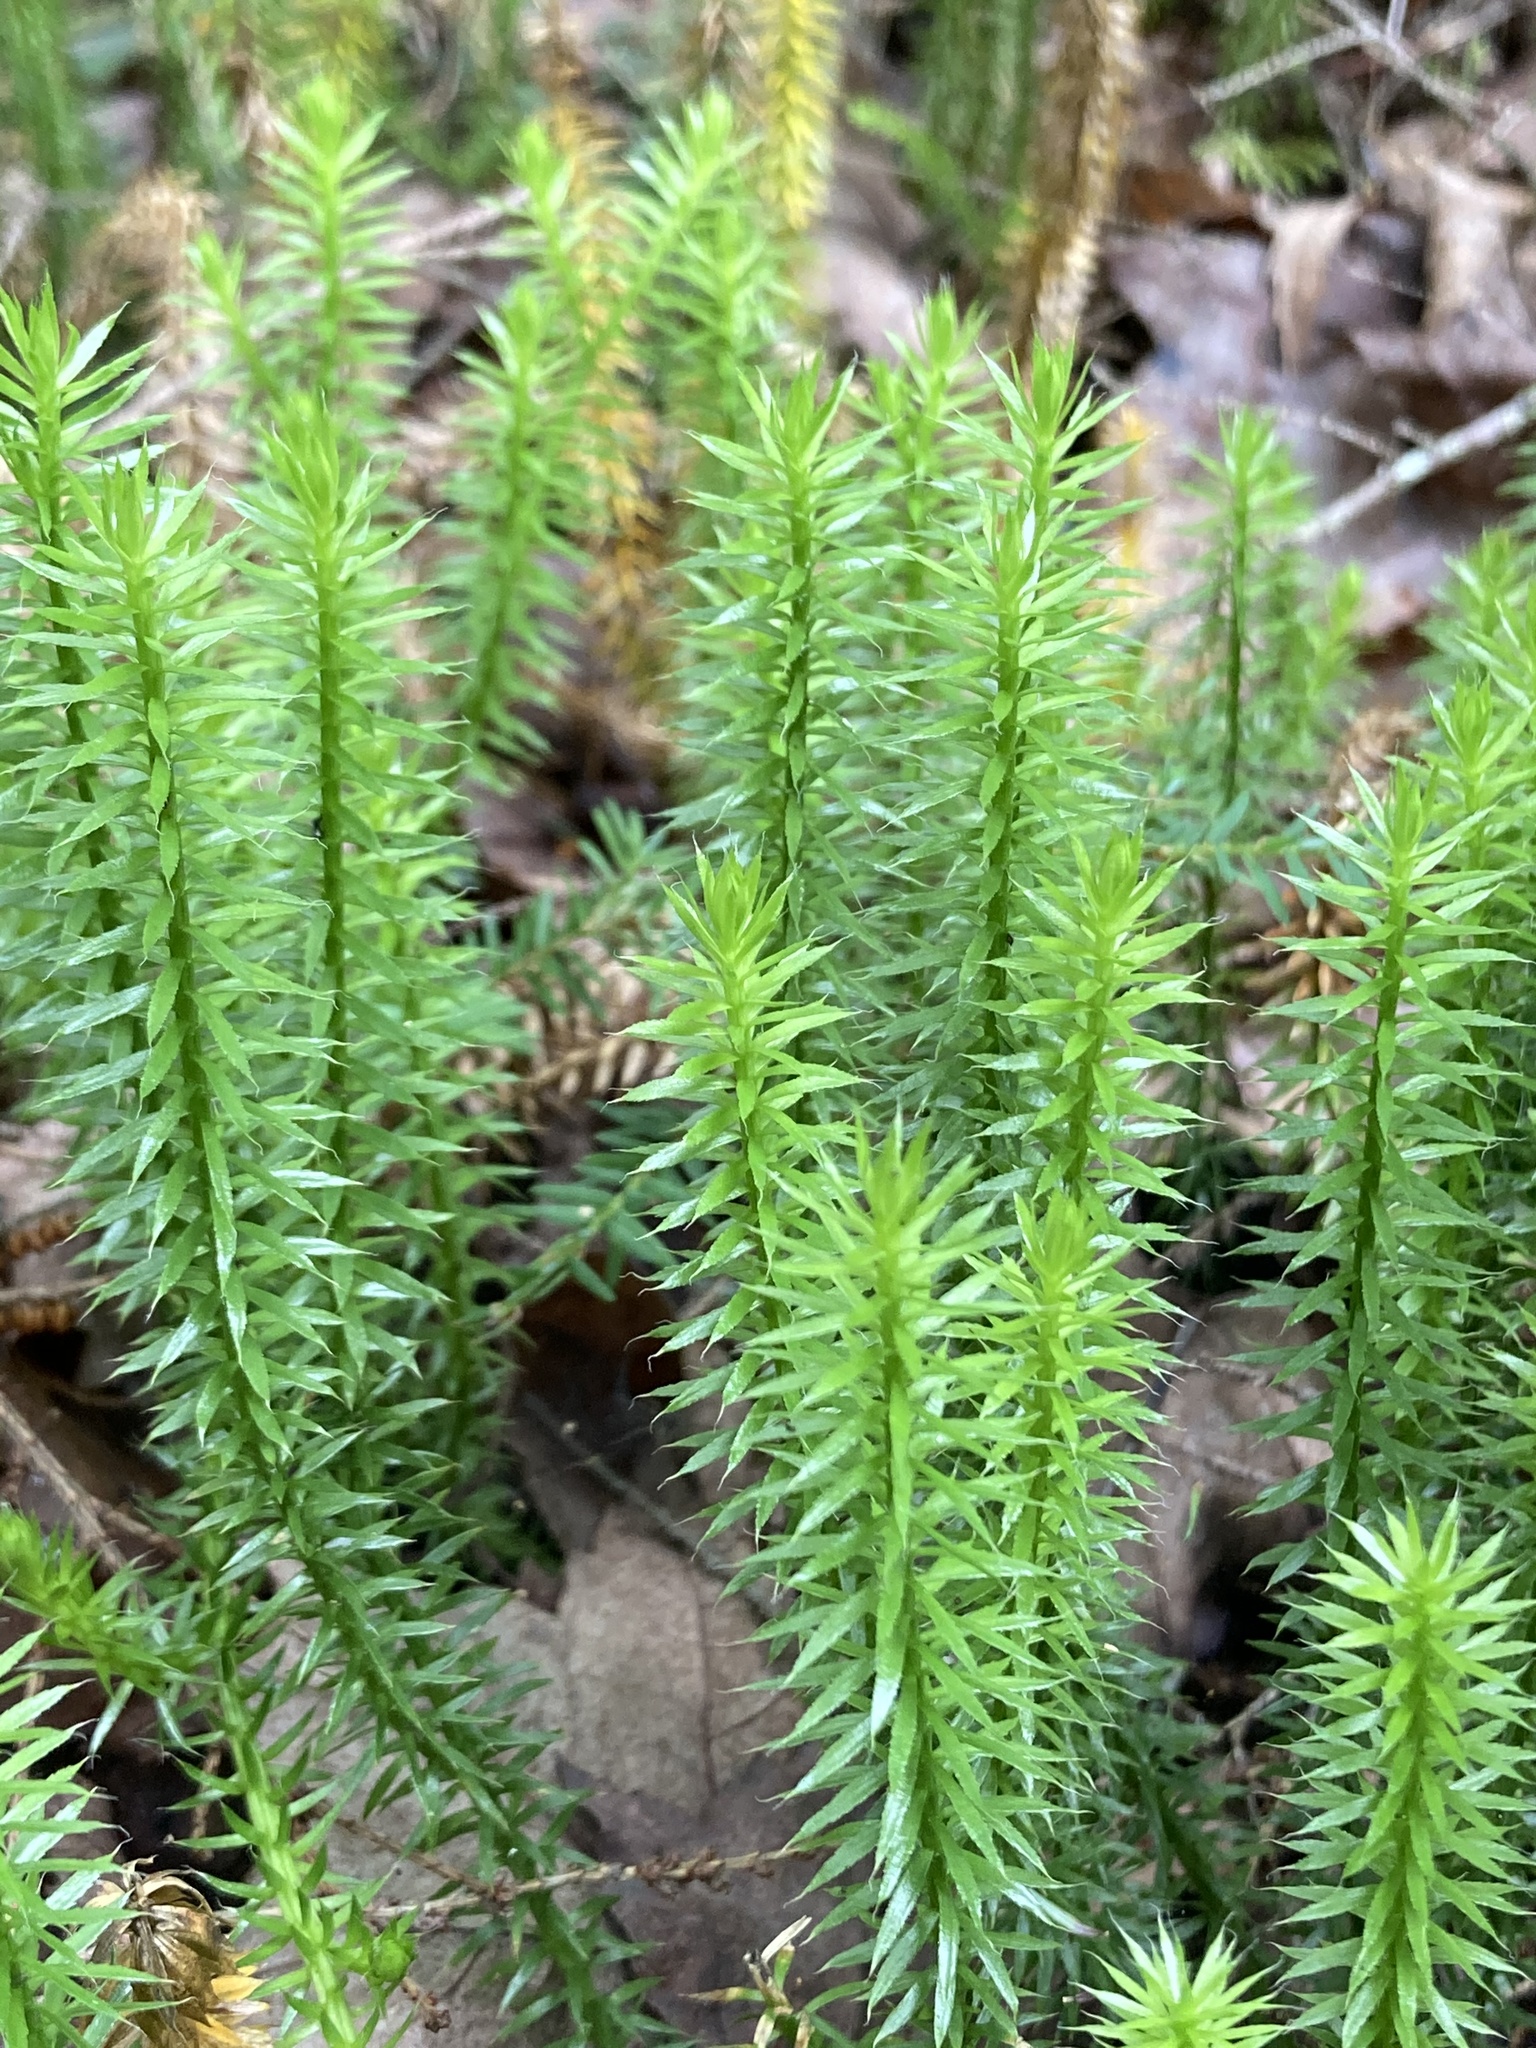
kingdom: Plantae
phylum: Tracheophyta
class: Lycopodiopsida
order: Lycopodiales
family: Lycopodiaceae
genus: Spinulum
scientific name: Spinulum annotinum
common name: Interrupted club-moss
